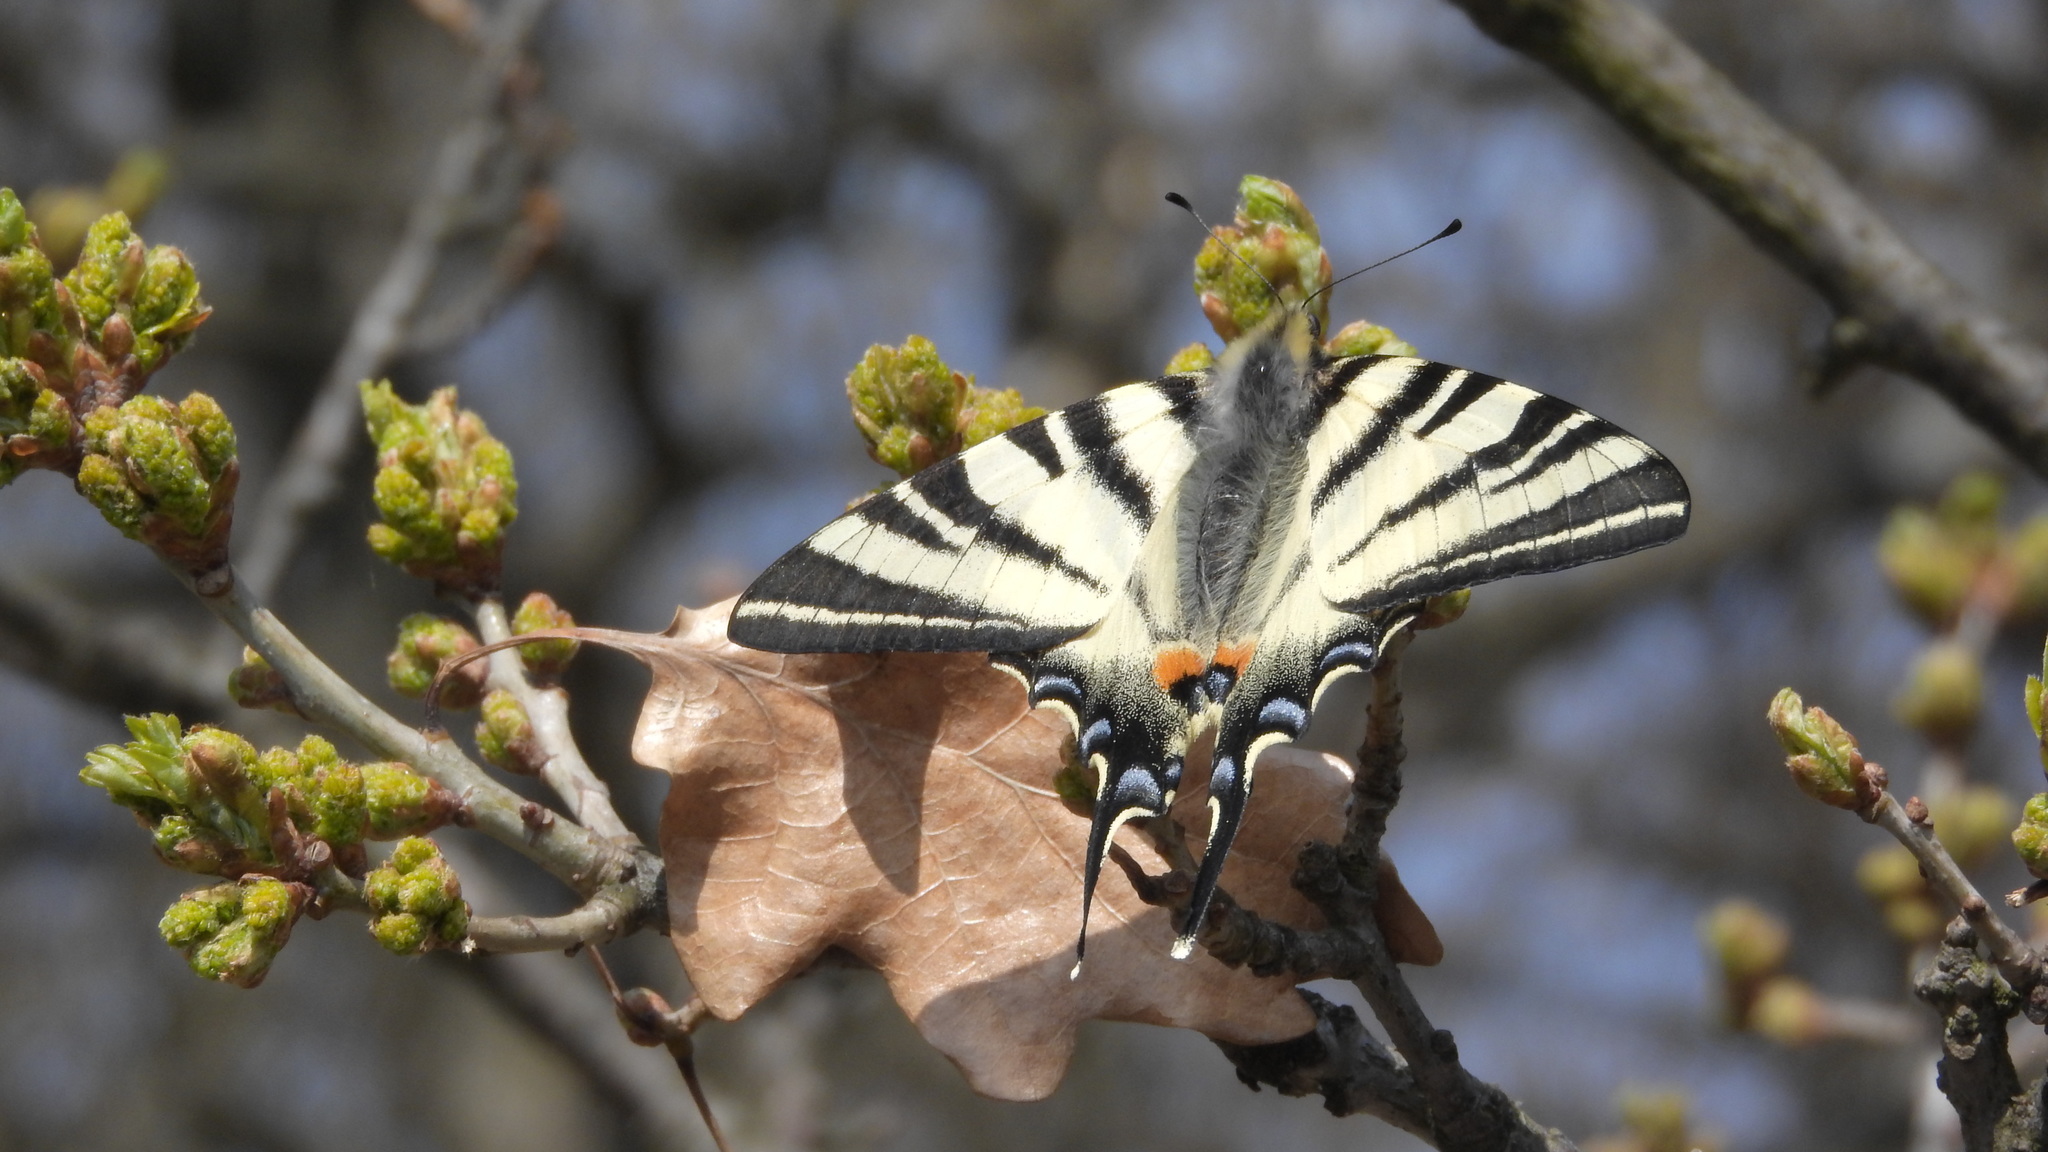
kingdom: Animalia
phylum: Arthropoda
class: Insecta
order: Lepidoptera
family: Papilionidae
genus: Iphiclides
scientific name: Iphiclides podalirius
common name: Scarce swallowtail
